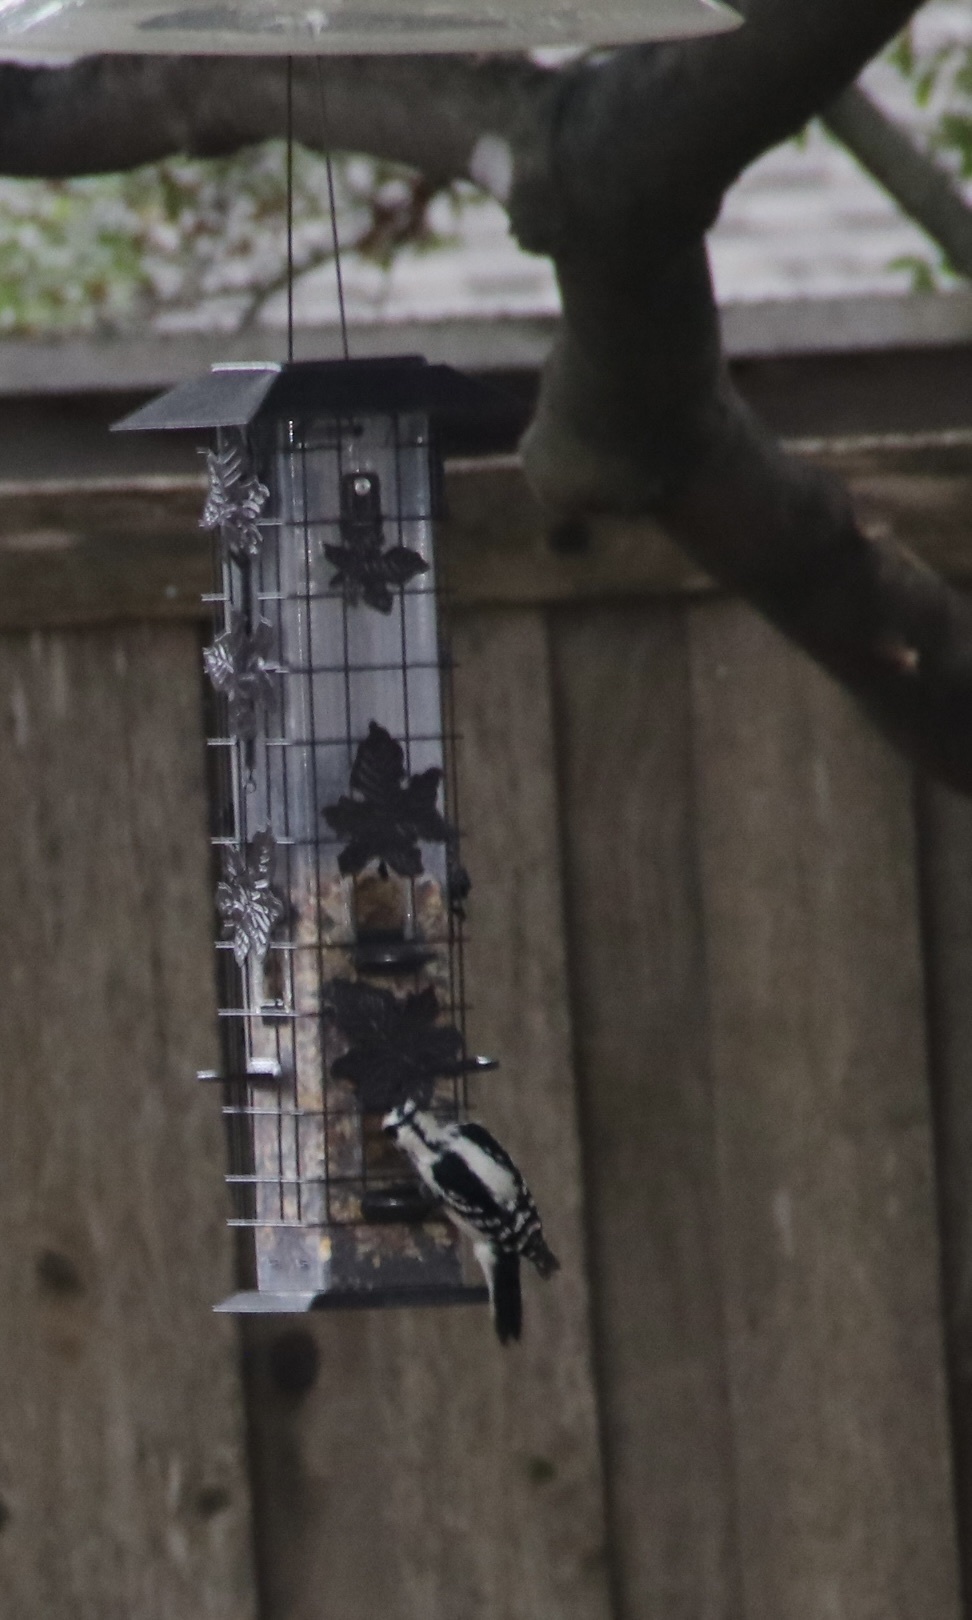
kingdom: Animalia
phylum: Chordata
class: Aves
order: Piciformes
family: Picidae
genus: Dryobates
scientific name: Dryobates pubescens
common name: Downy woodpecker
